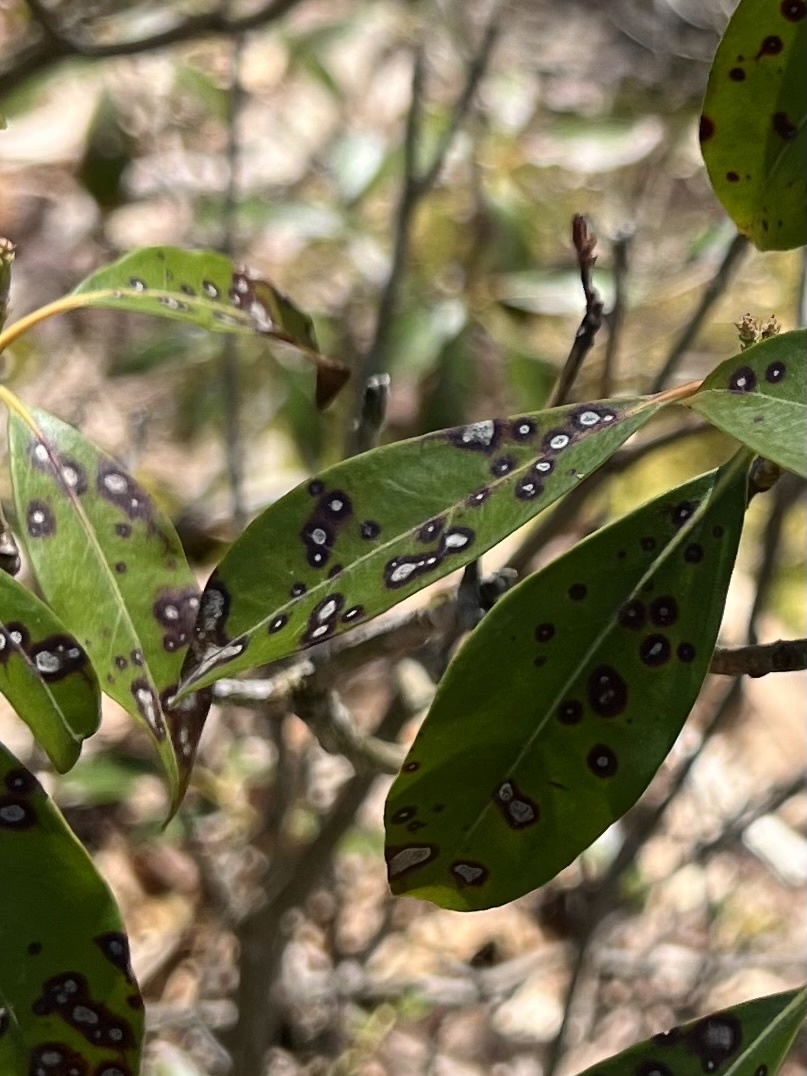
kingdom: Fungi
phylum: Ascomycota
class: Dothideomycetes
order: Mycosphaerellales
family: Mycosphaerellaceae
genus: Mycosphaerella
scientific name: Mycosphaerella colorata
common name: Mountain laurel leaf spot
